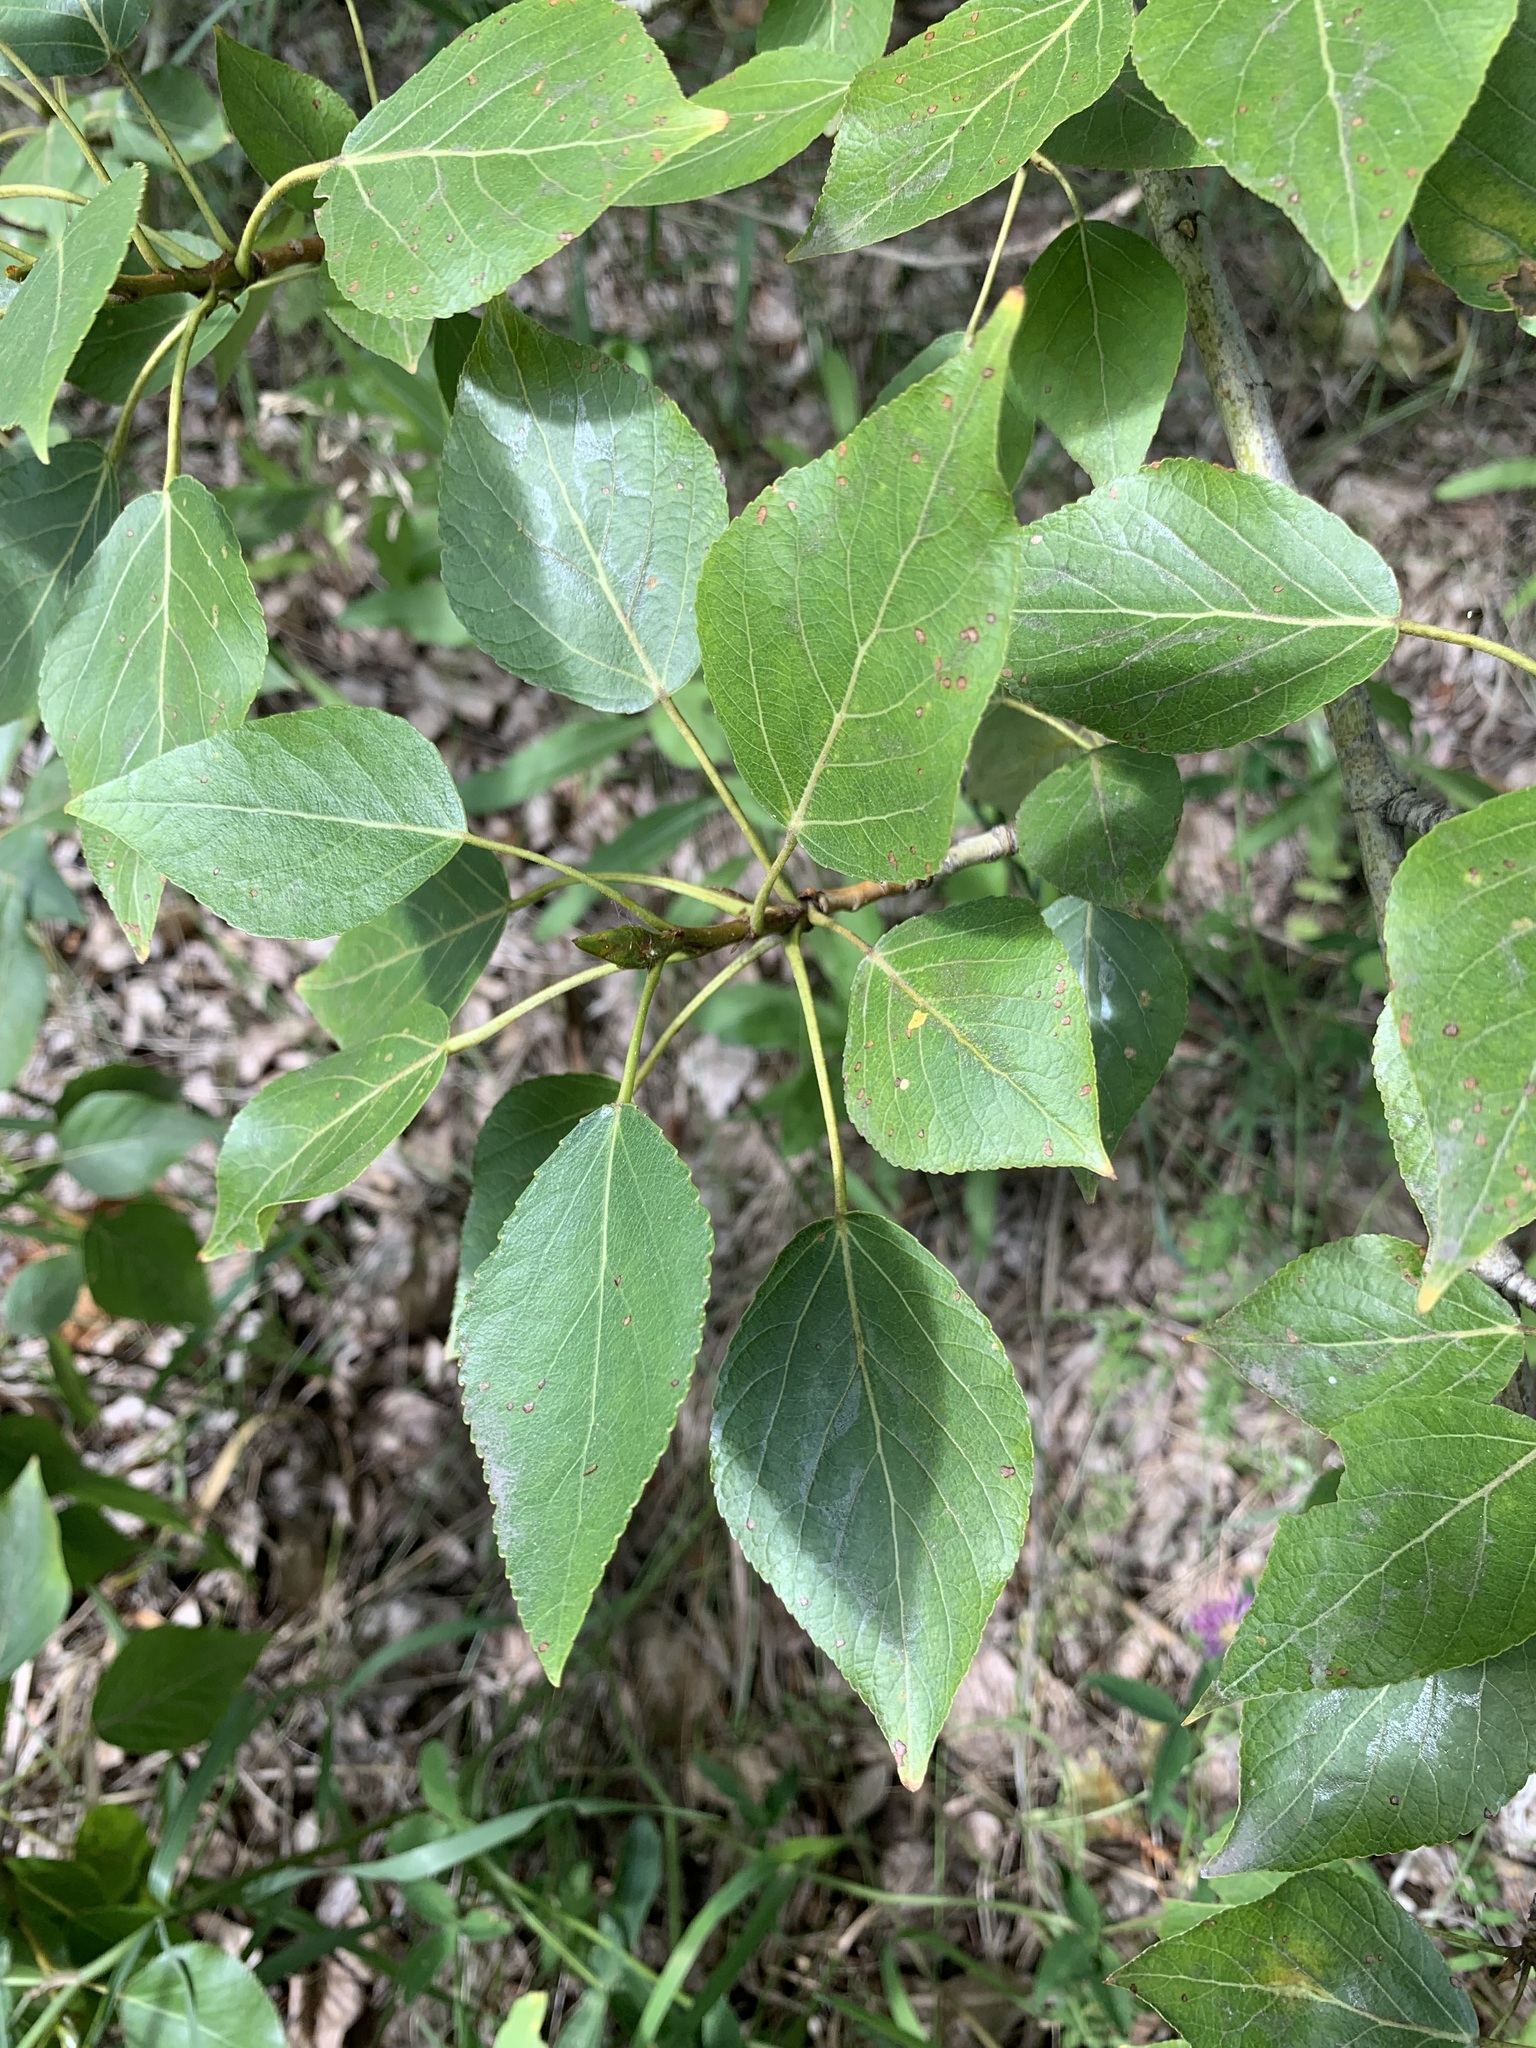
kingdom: Plantae
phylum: Tracheophyta
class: Magnoliopsida
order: Malpighiales
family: Salicaceae
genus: Populus
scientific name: Populus sibirica
